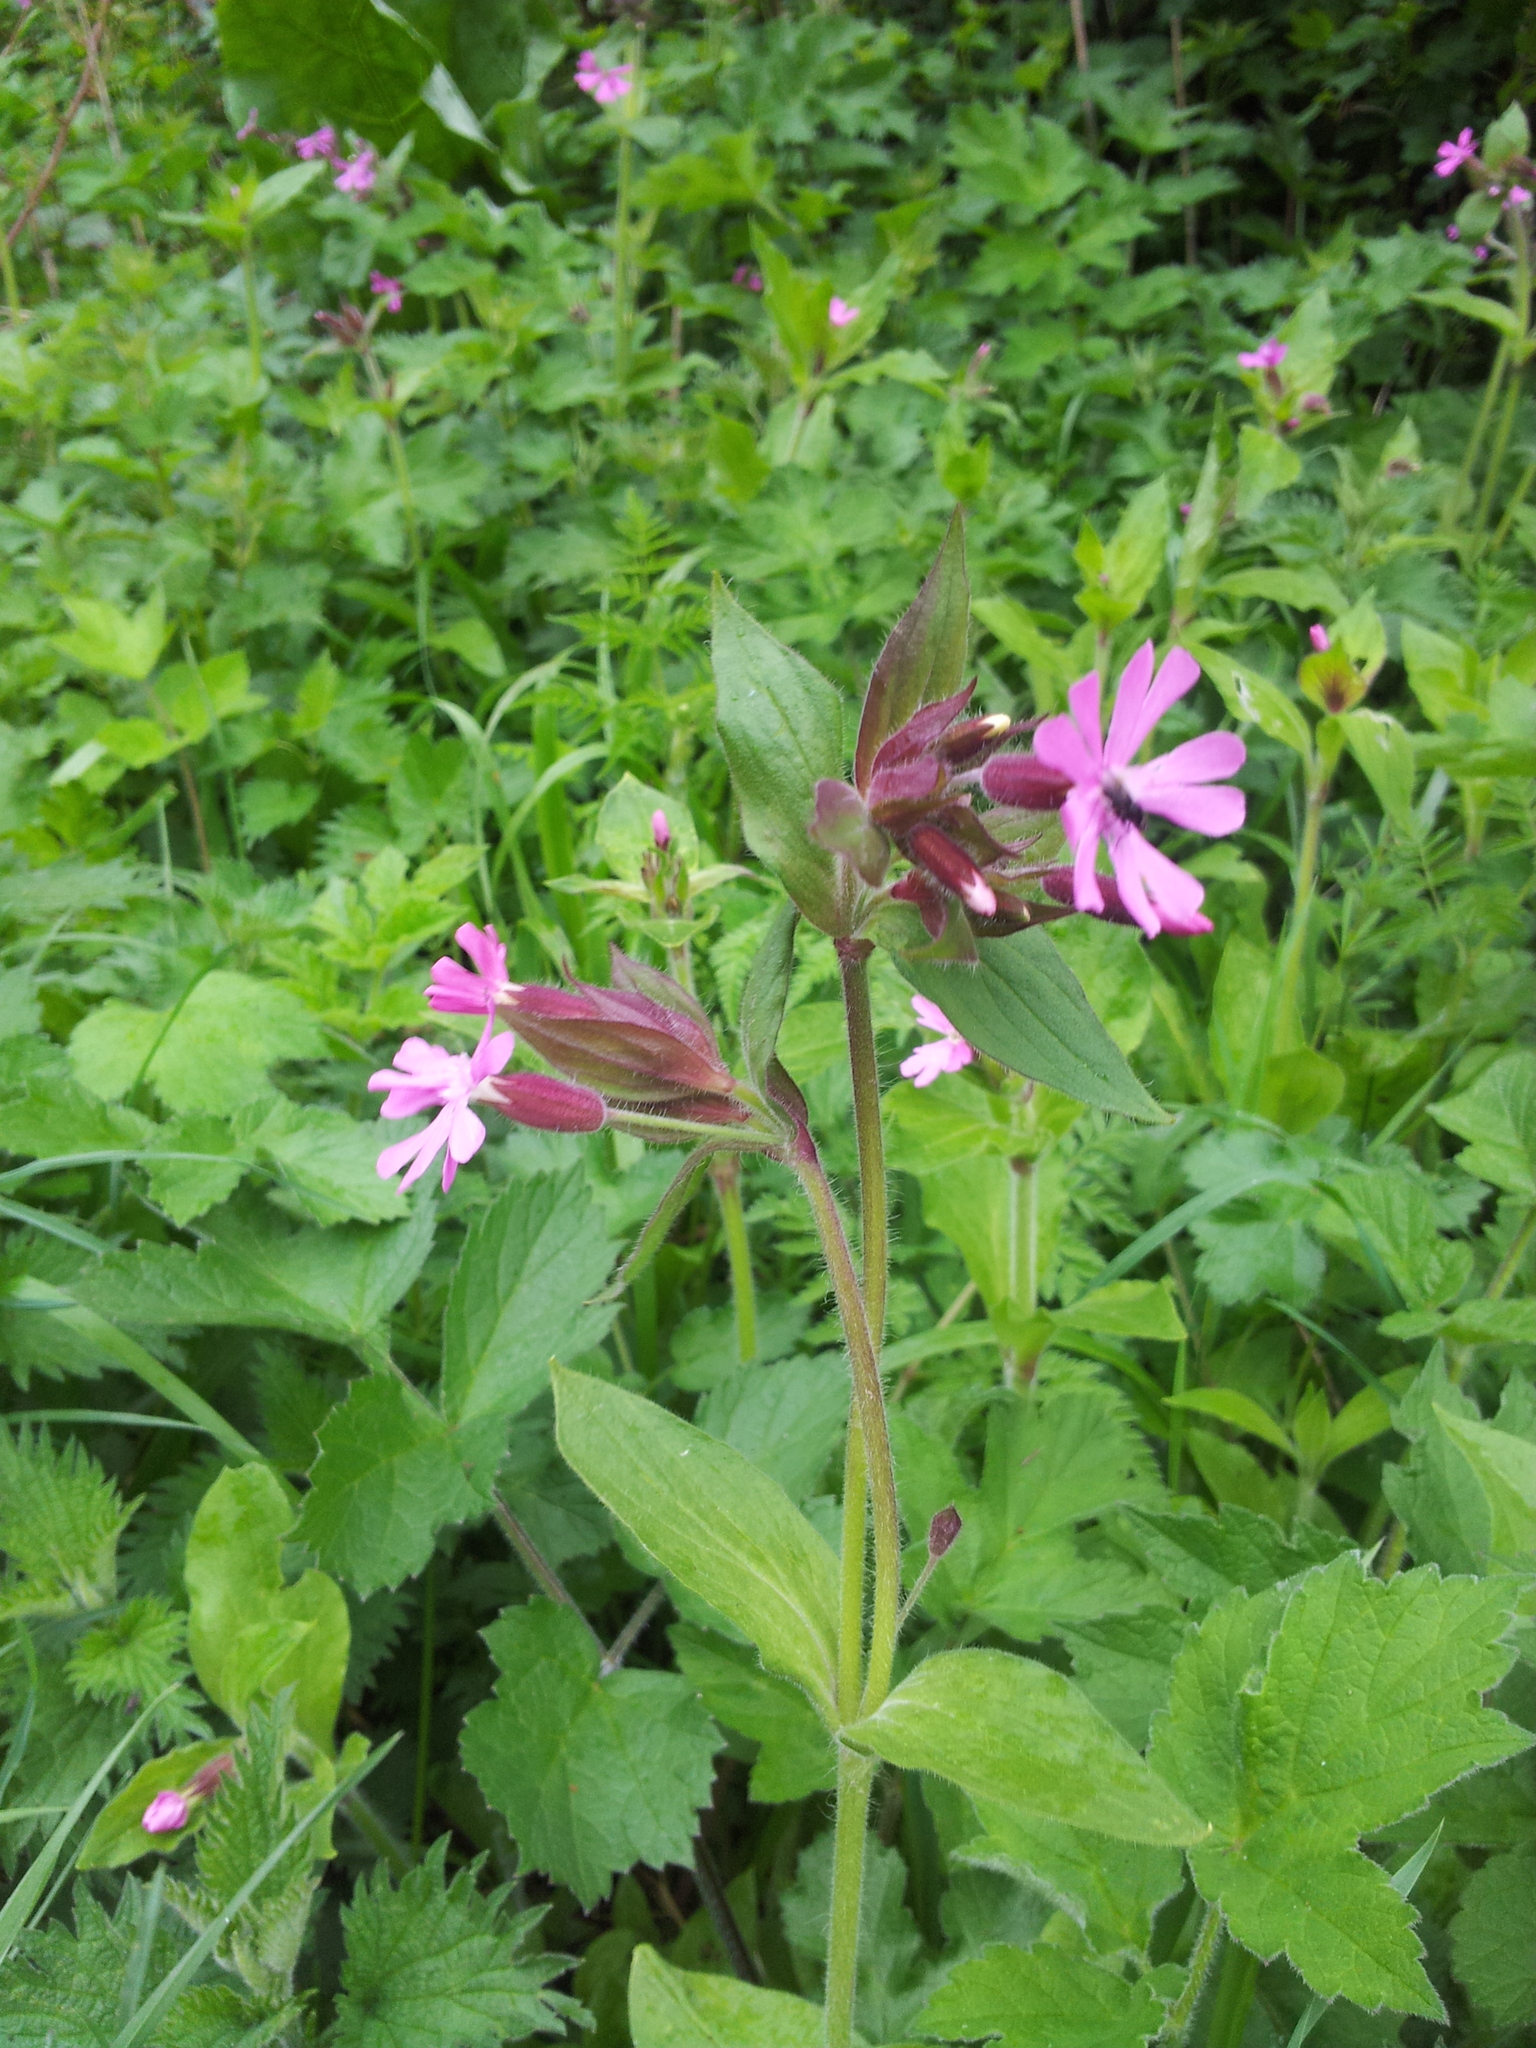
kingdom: Plantae
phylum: Tracheophyta
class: Magnoliopsida
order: Caryophyllales
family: Caryophyllaceae
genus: Silene
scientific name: Silene dioica
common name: Red campion
